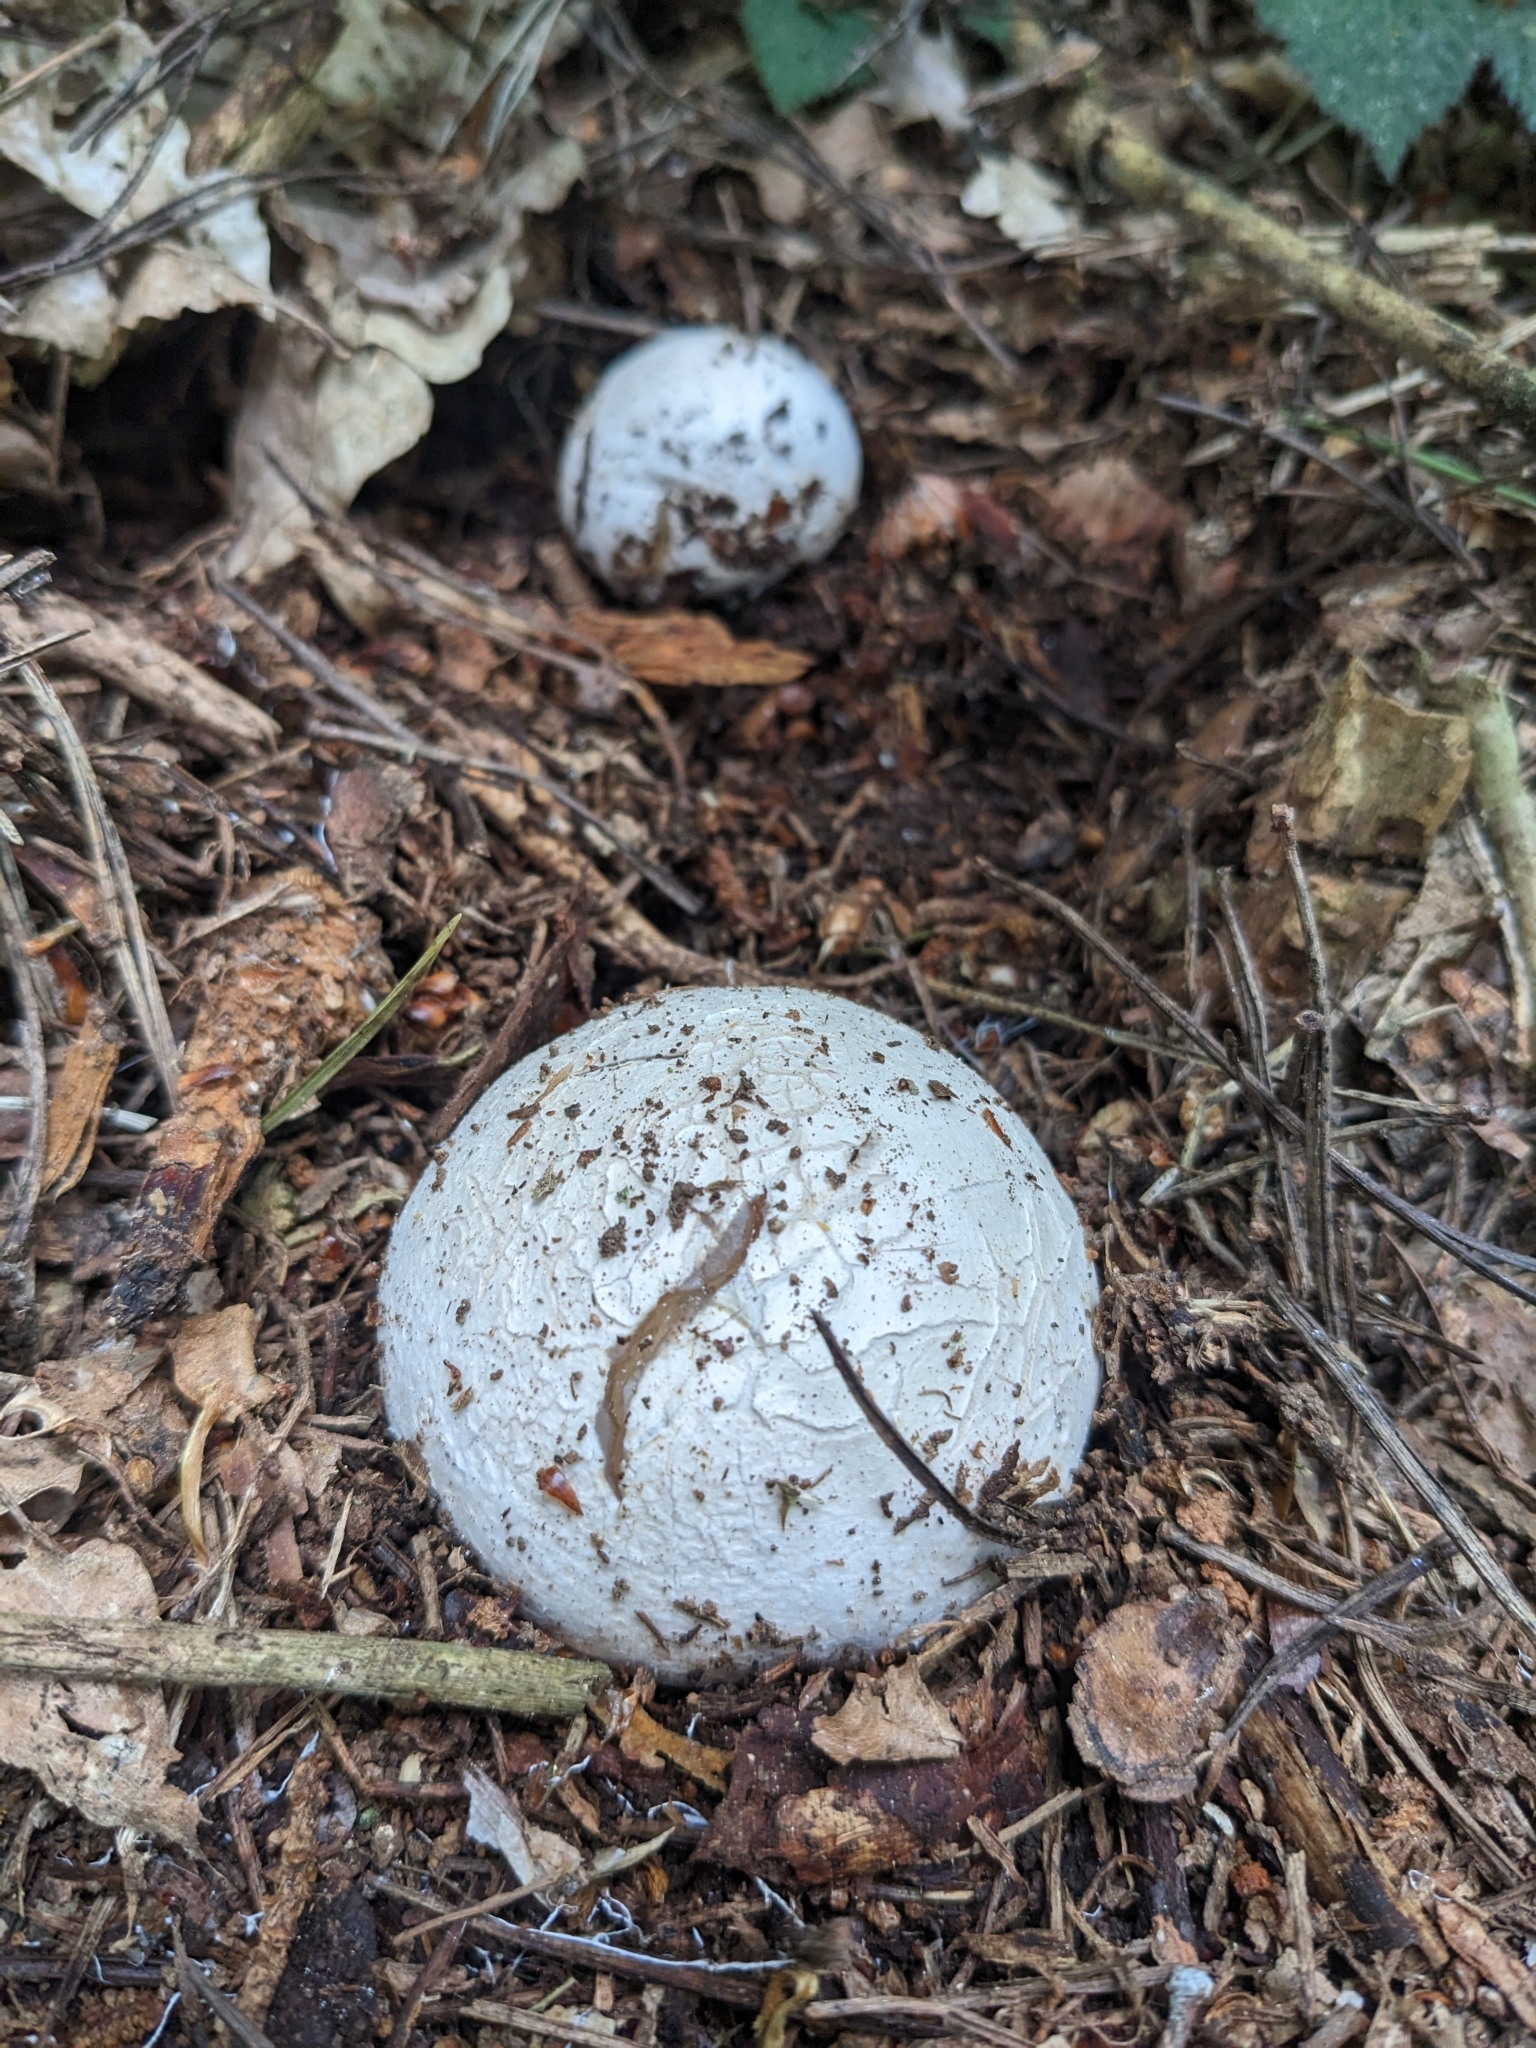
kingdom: Fungi
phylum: Basidiomycota
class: Agaricomycetes
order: Phallales
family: Phallaceae
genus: Phallus
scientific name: Phallus impudicus
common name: Common stinkhorn
